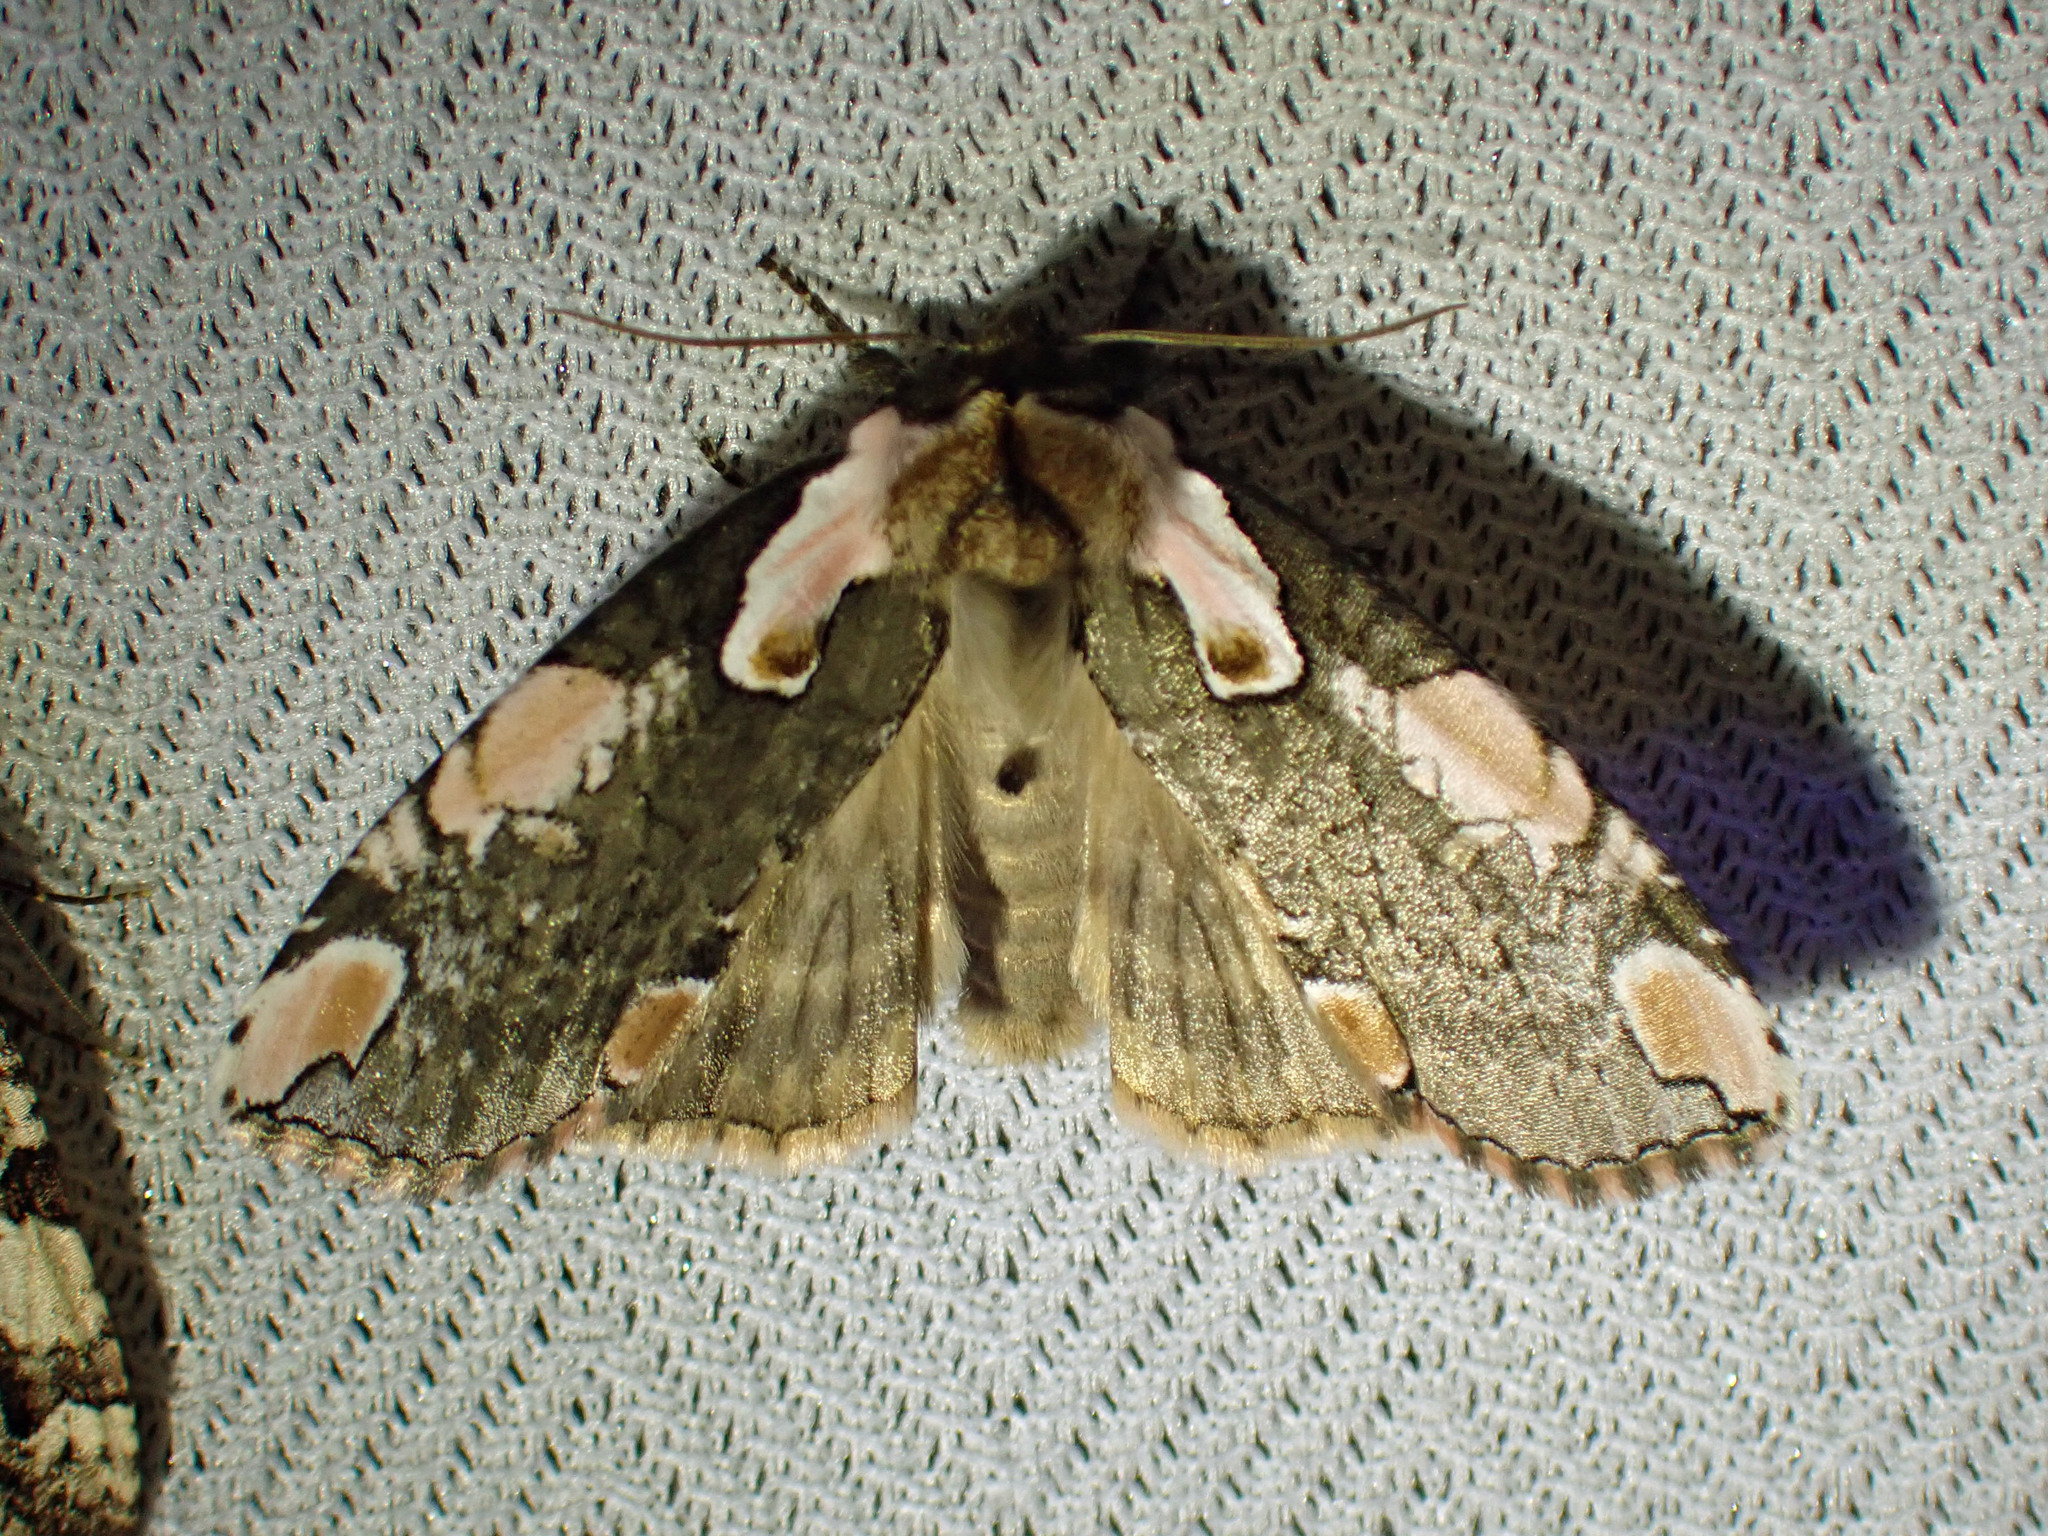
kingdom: Animalia
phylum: Arthropoda
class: Insecta
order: Lepidoptera
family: Drepanidae
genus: Euthyatira
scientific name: Euthyatira pudens
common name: Dogwood thyatirid moth
